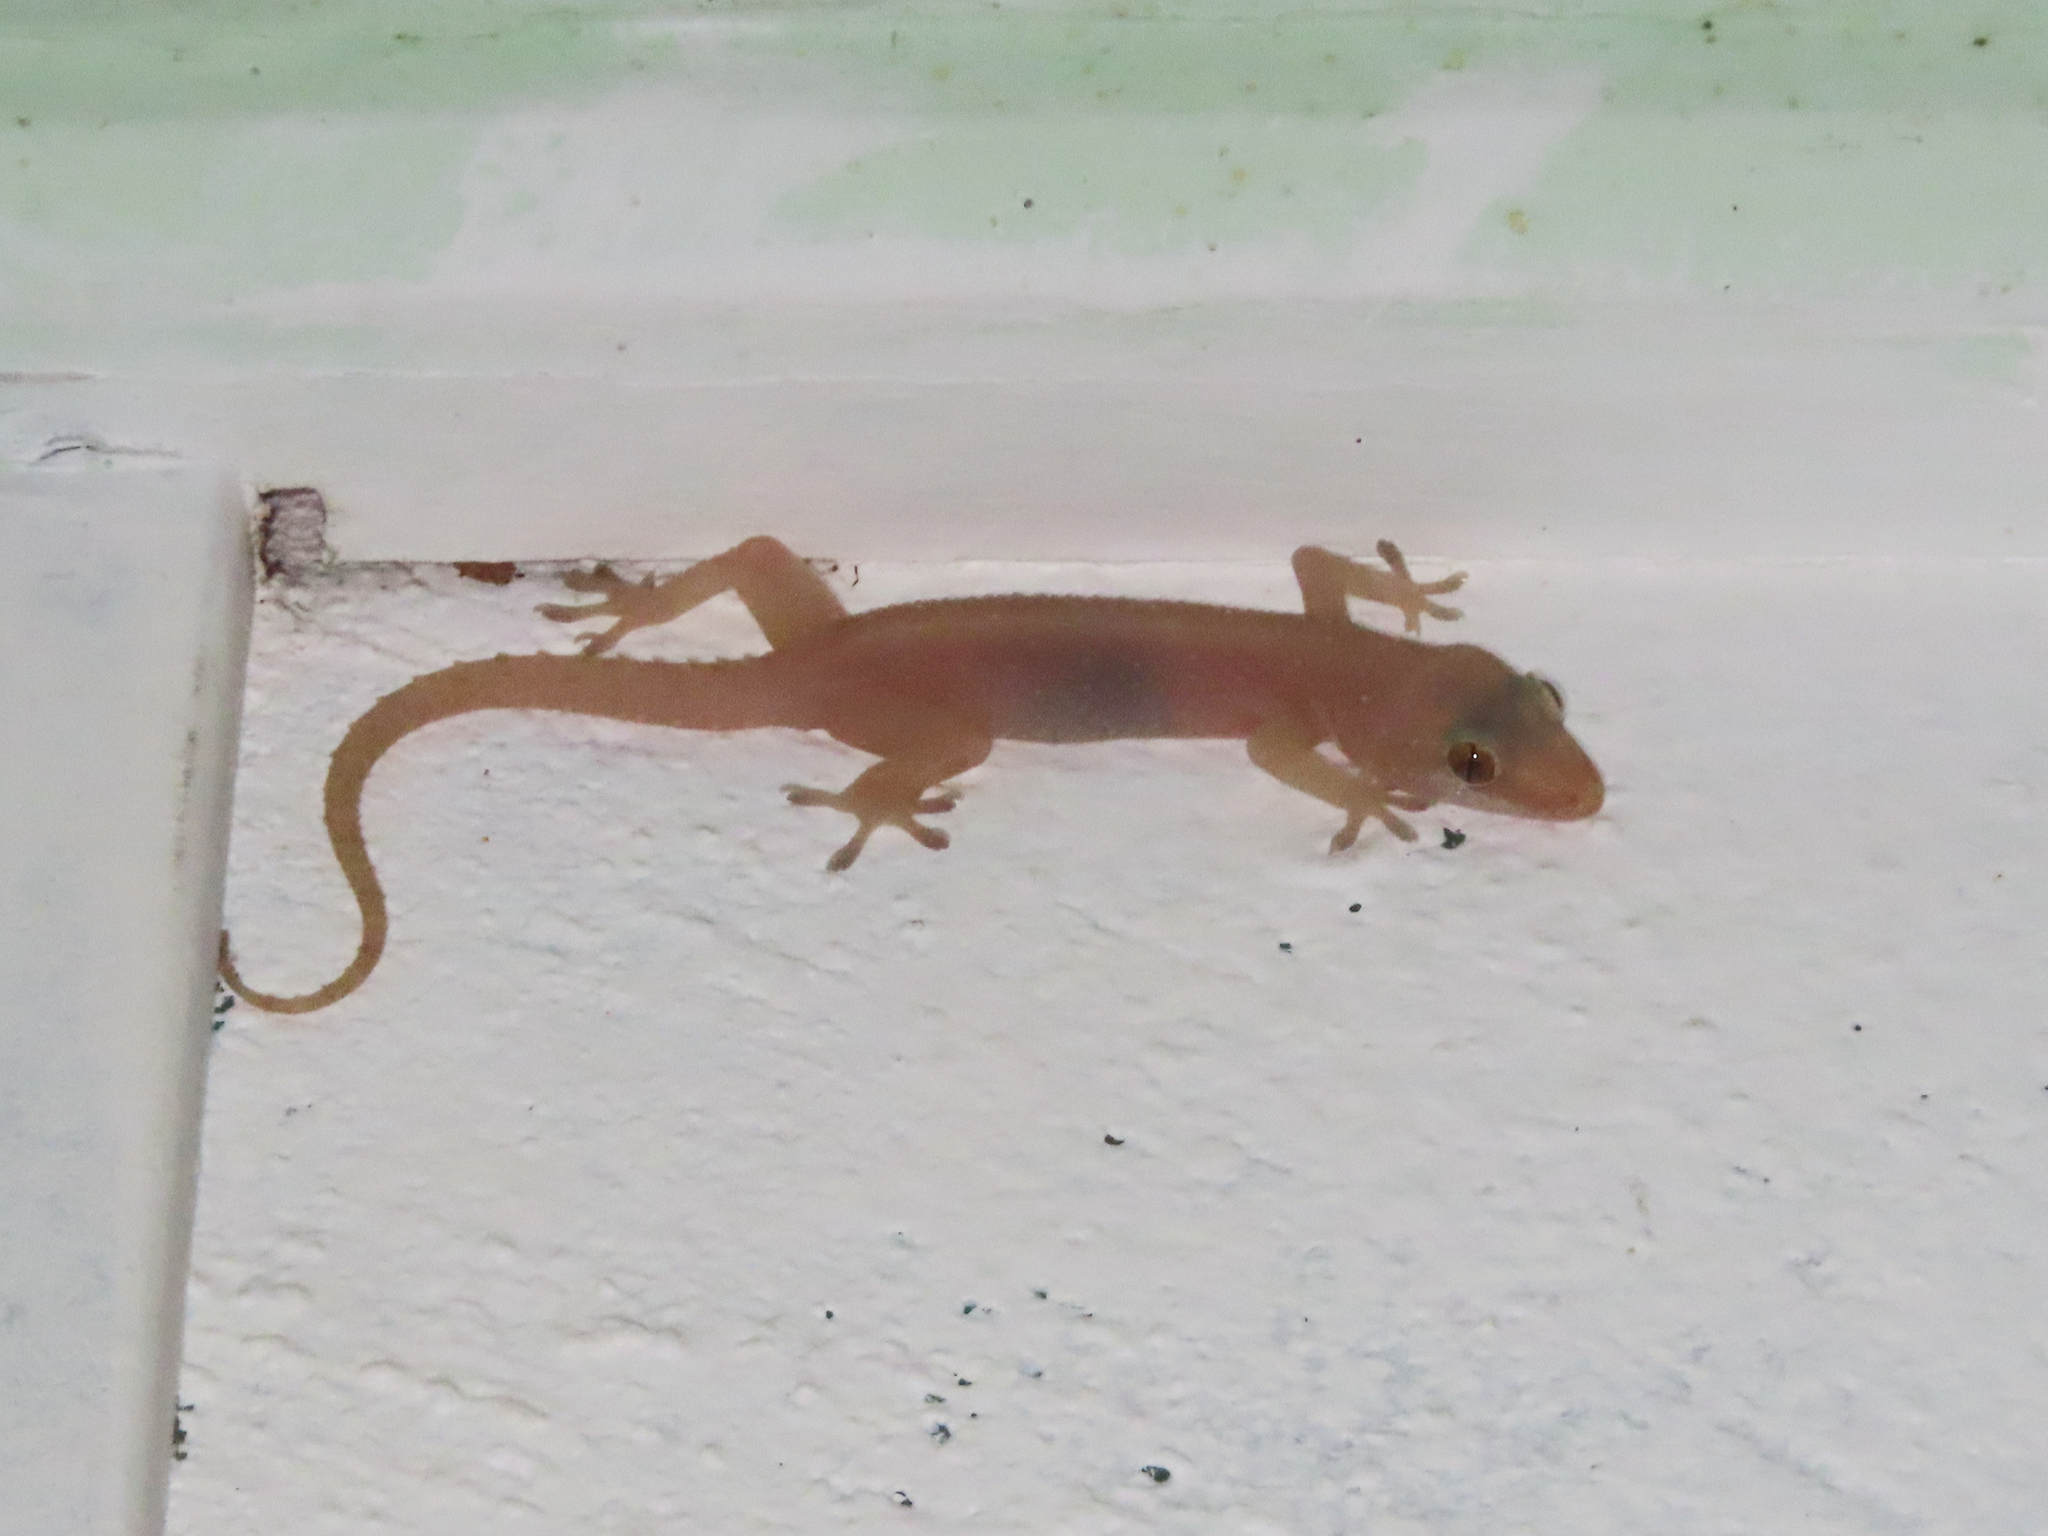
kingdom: Animalia
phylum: Chordata
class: Squamata
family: Gekkonidae
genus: Hemidactylus
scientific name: Hemidactylus frenatus
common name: Common house gecko
